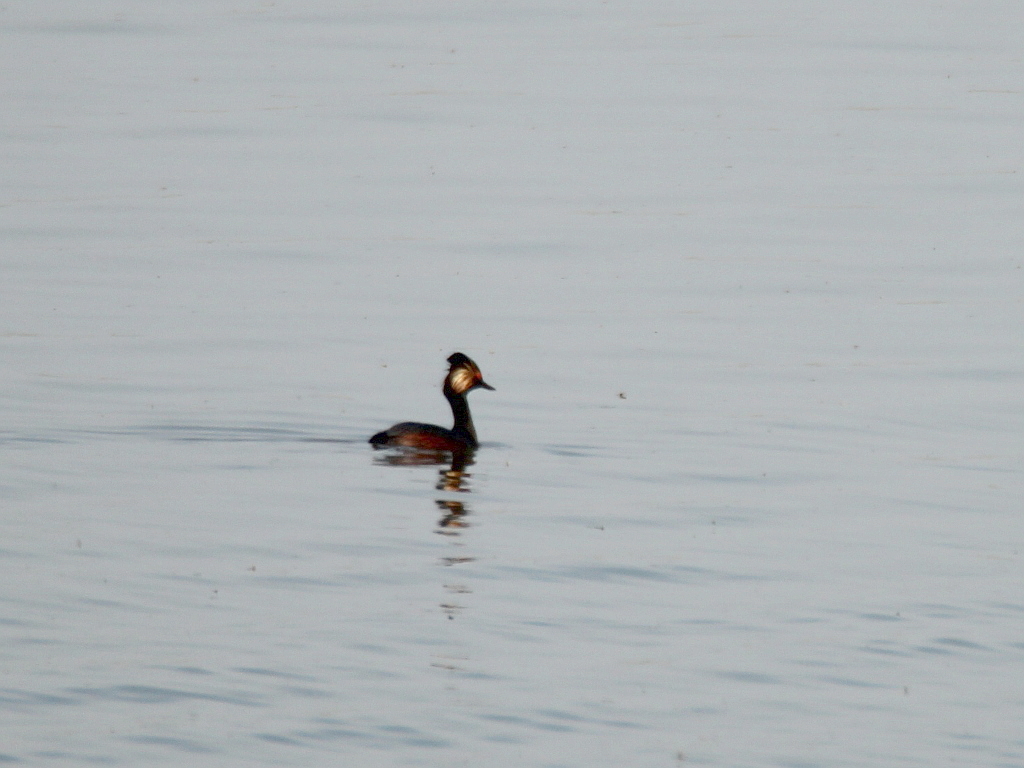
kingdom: Animalia
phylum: Chordata
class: Aves
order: Podicipediformes
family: Podicipedidae
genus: Podiceps
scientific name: Podiceps nigricollis
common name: Black-necked grebe
